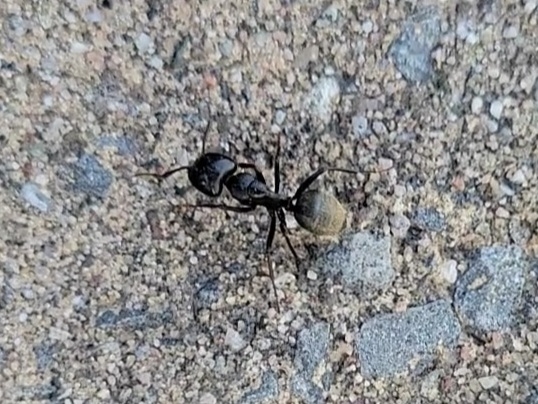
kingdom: Animalia
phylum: Arthropoda
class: Insecta
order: Hymenoptera
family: Formicidae
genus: Camponotus
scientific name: Camponotus pennsylvanicus
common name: Black carpenter ant
